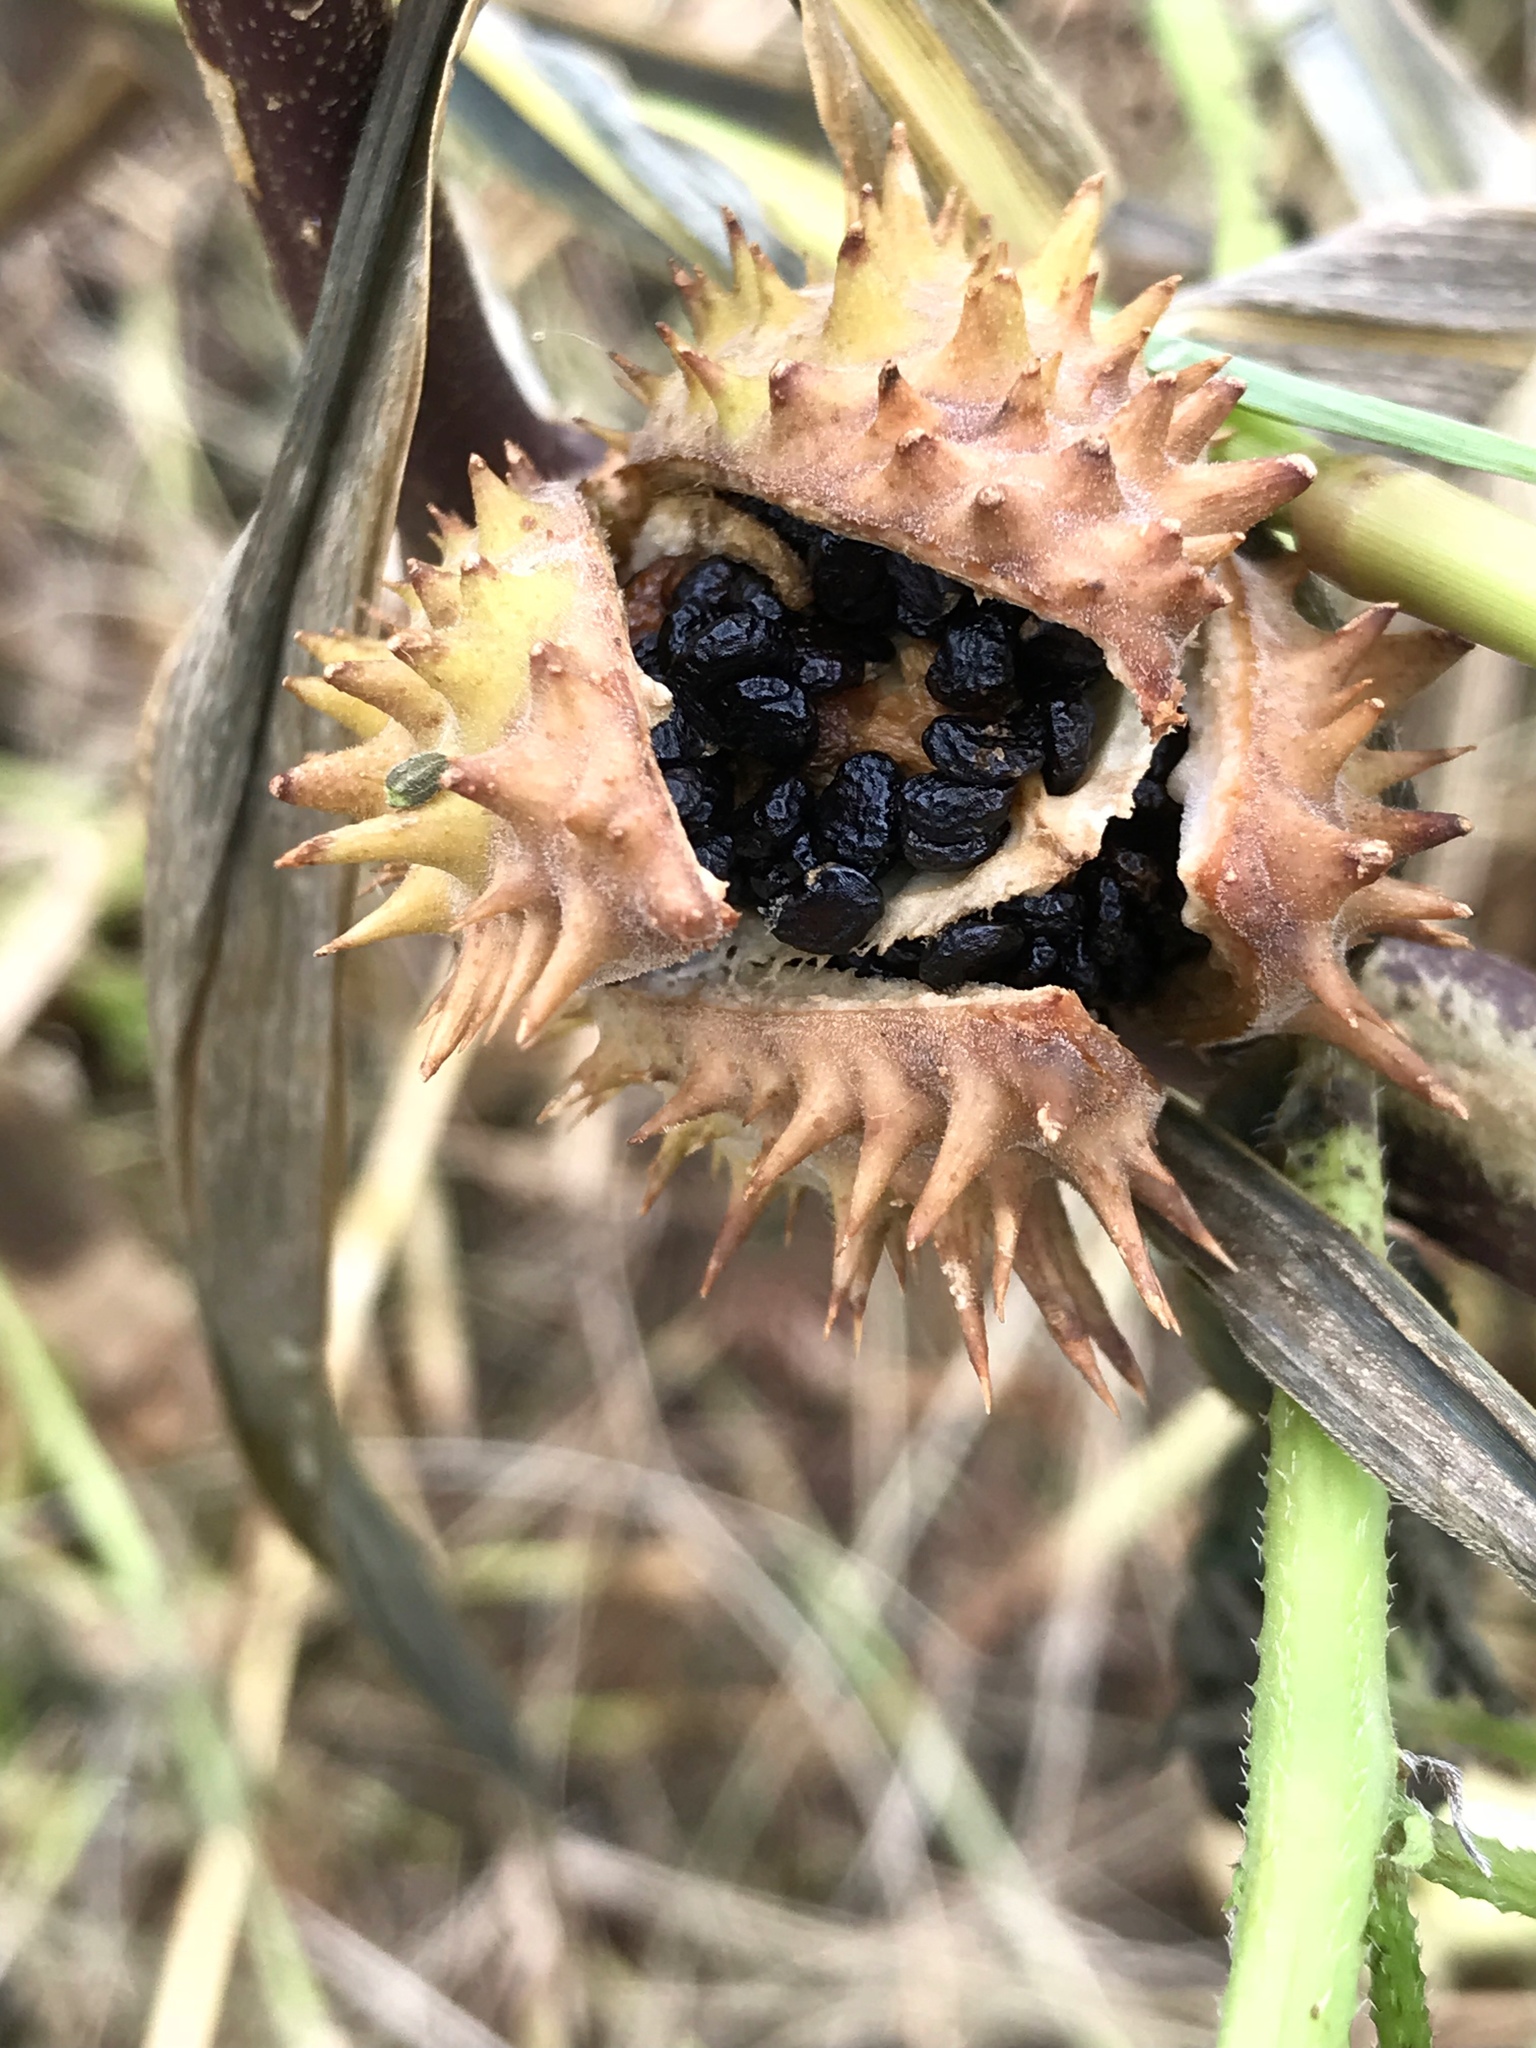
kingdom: Plantae
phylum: Tracheophyta
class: Magnoliopsida
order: Solanales
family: Solanaceae
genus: Datura
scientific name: Datura stramonium
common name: Thorn-apple
